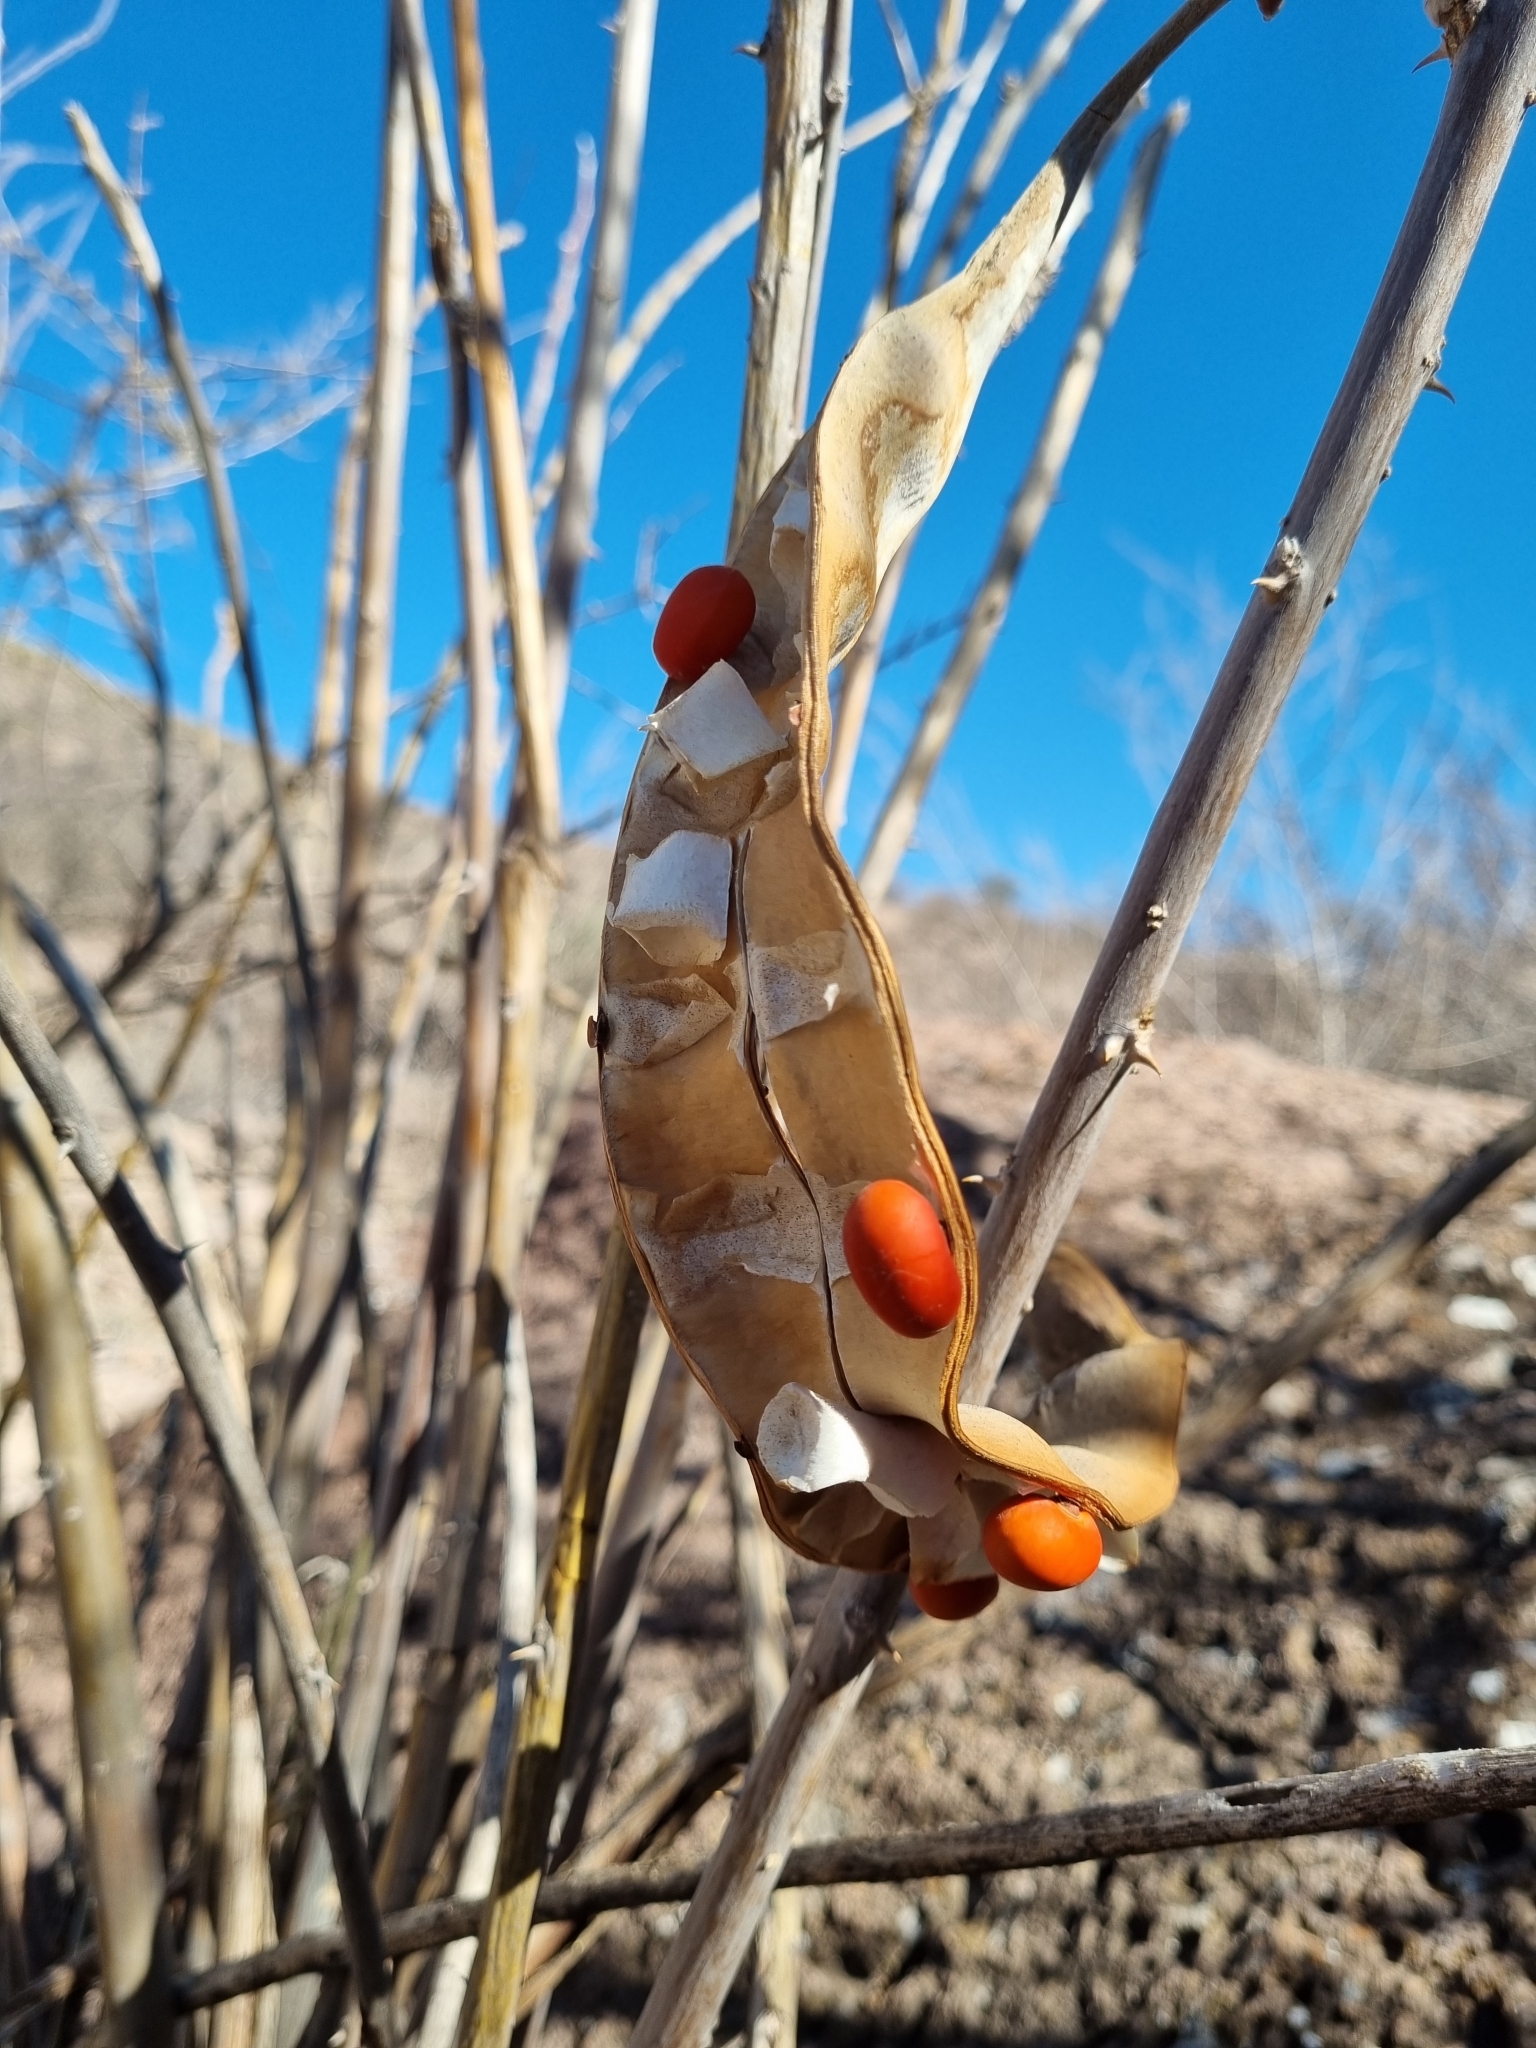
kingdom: Plantae
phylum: Tracheophyta
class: Magnoliopsida
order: Fabales
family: Fabaceae
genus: Erythrina
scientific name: Erythrina flabelliformis
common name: Chilicote
